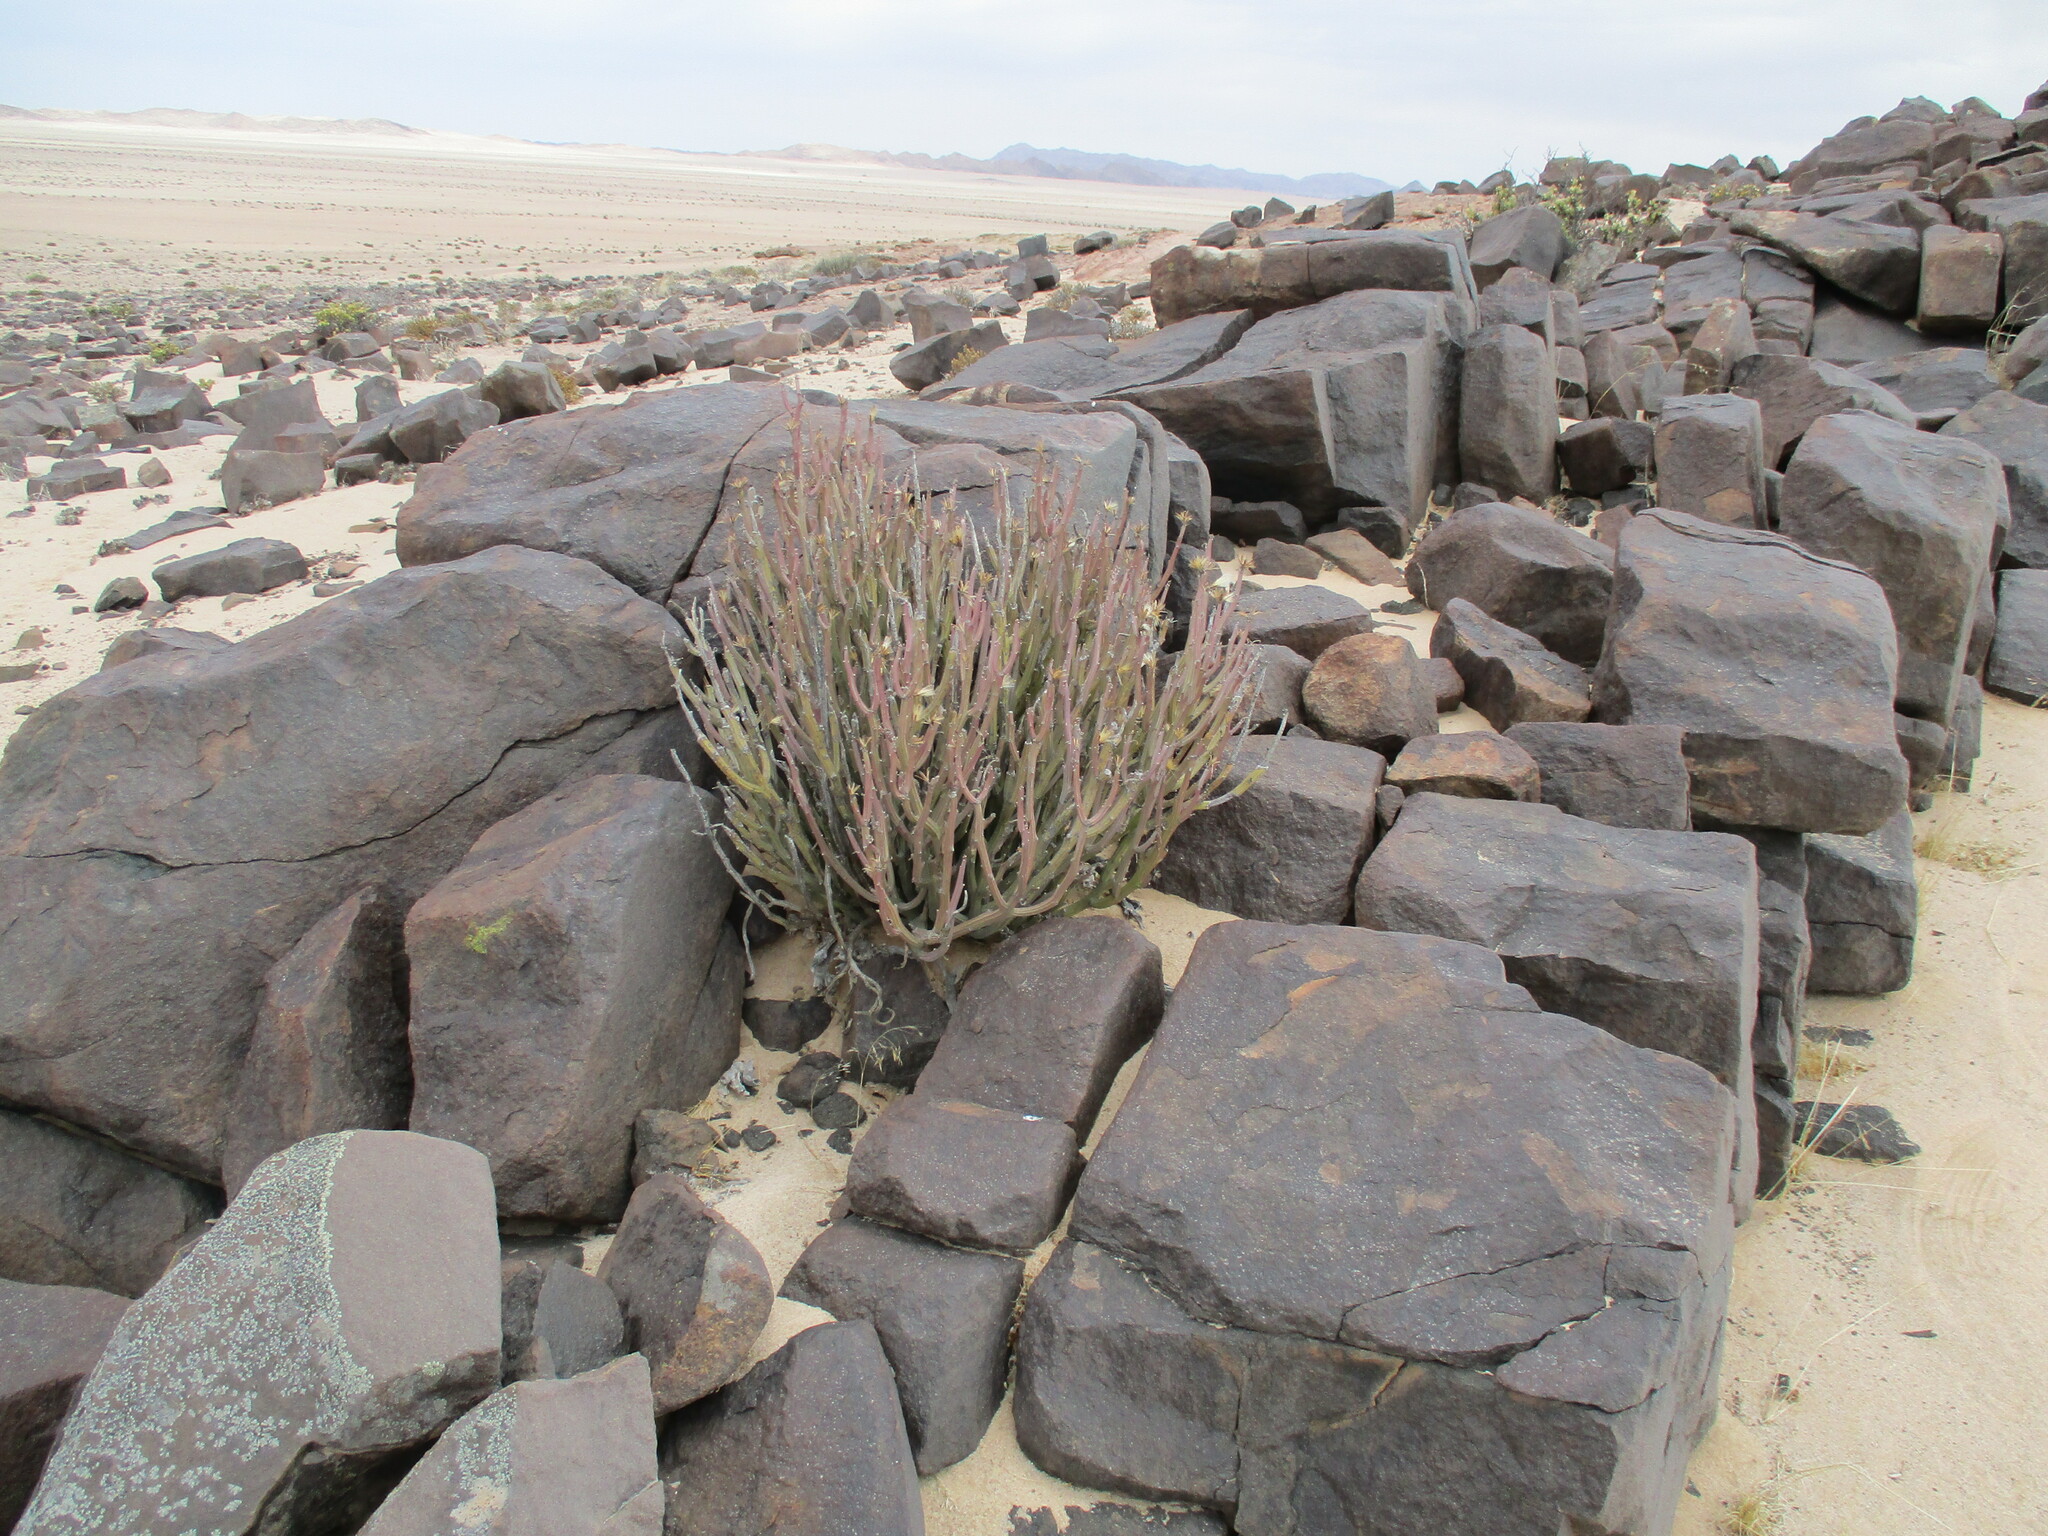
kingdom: Plantae
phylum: Tracheophyta
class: Magnoliopsida
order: Asterales
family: Asteraceae
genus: Curio
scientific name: Curio avasimontanus
